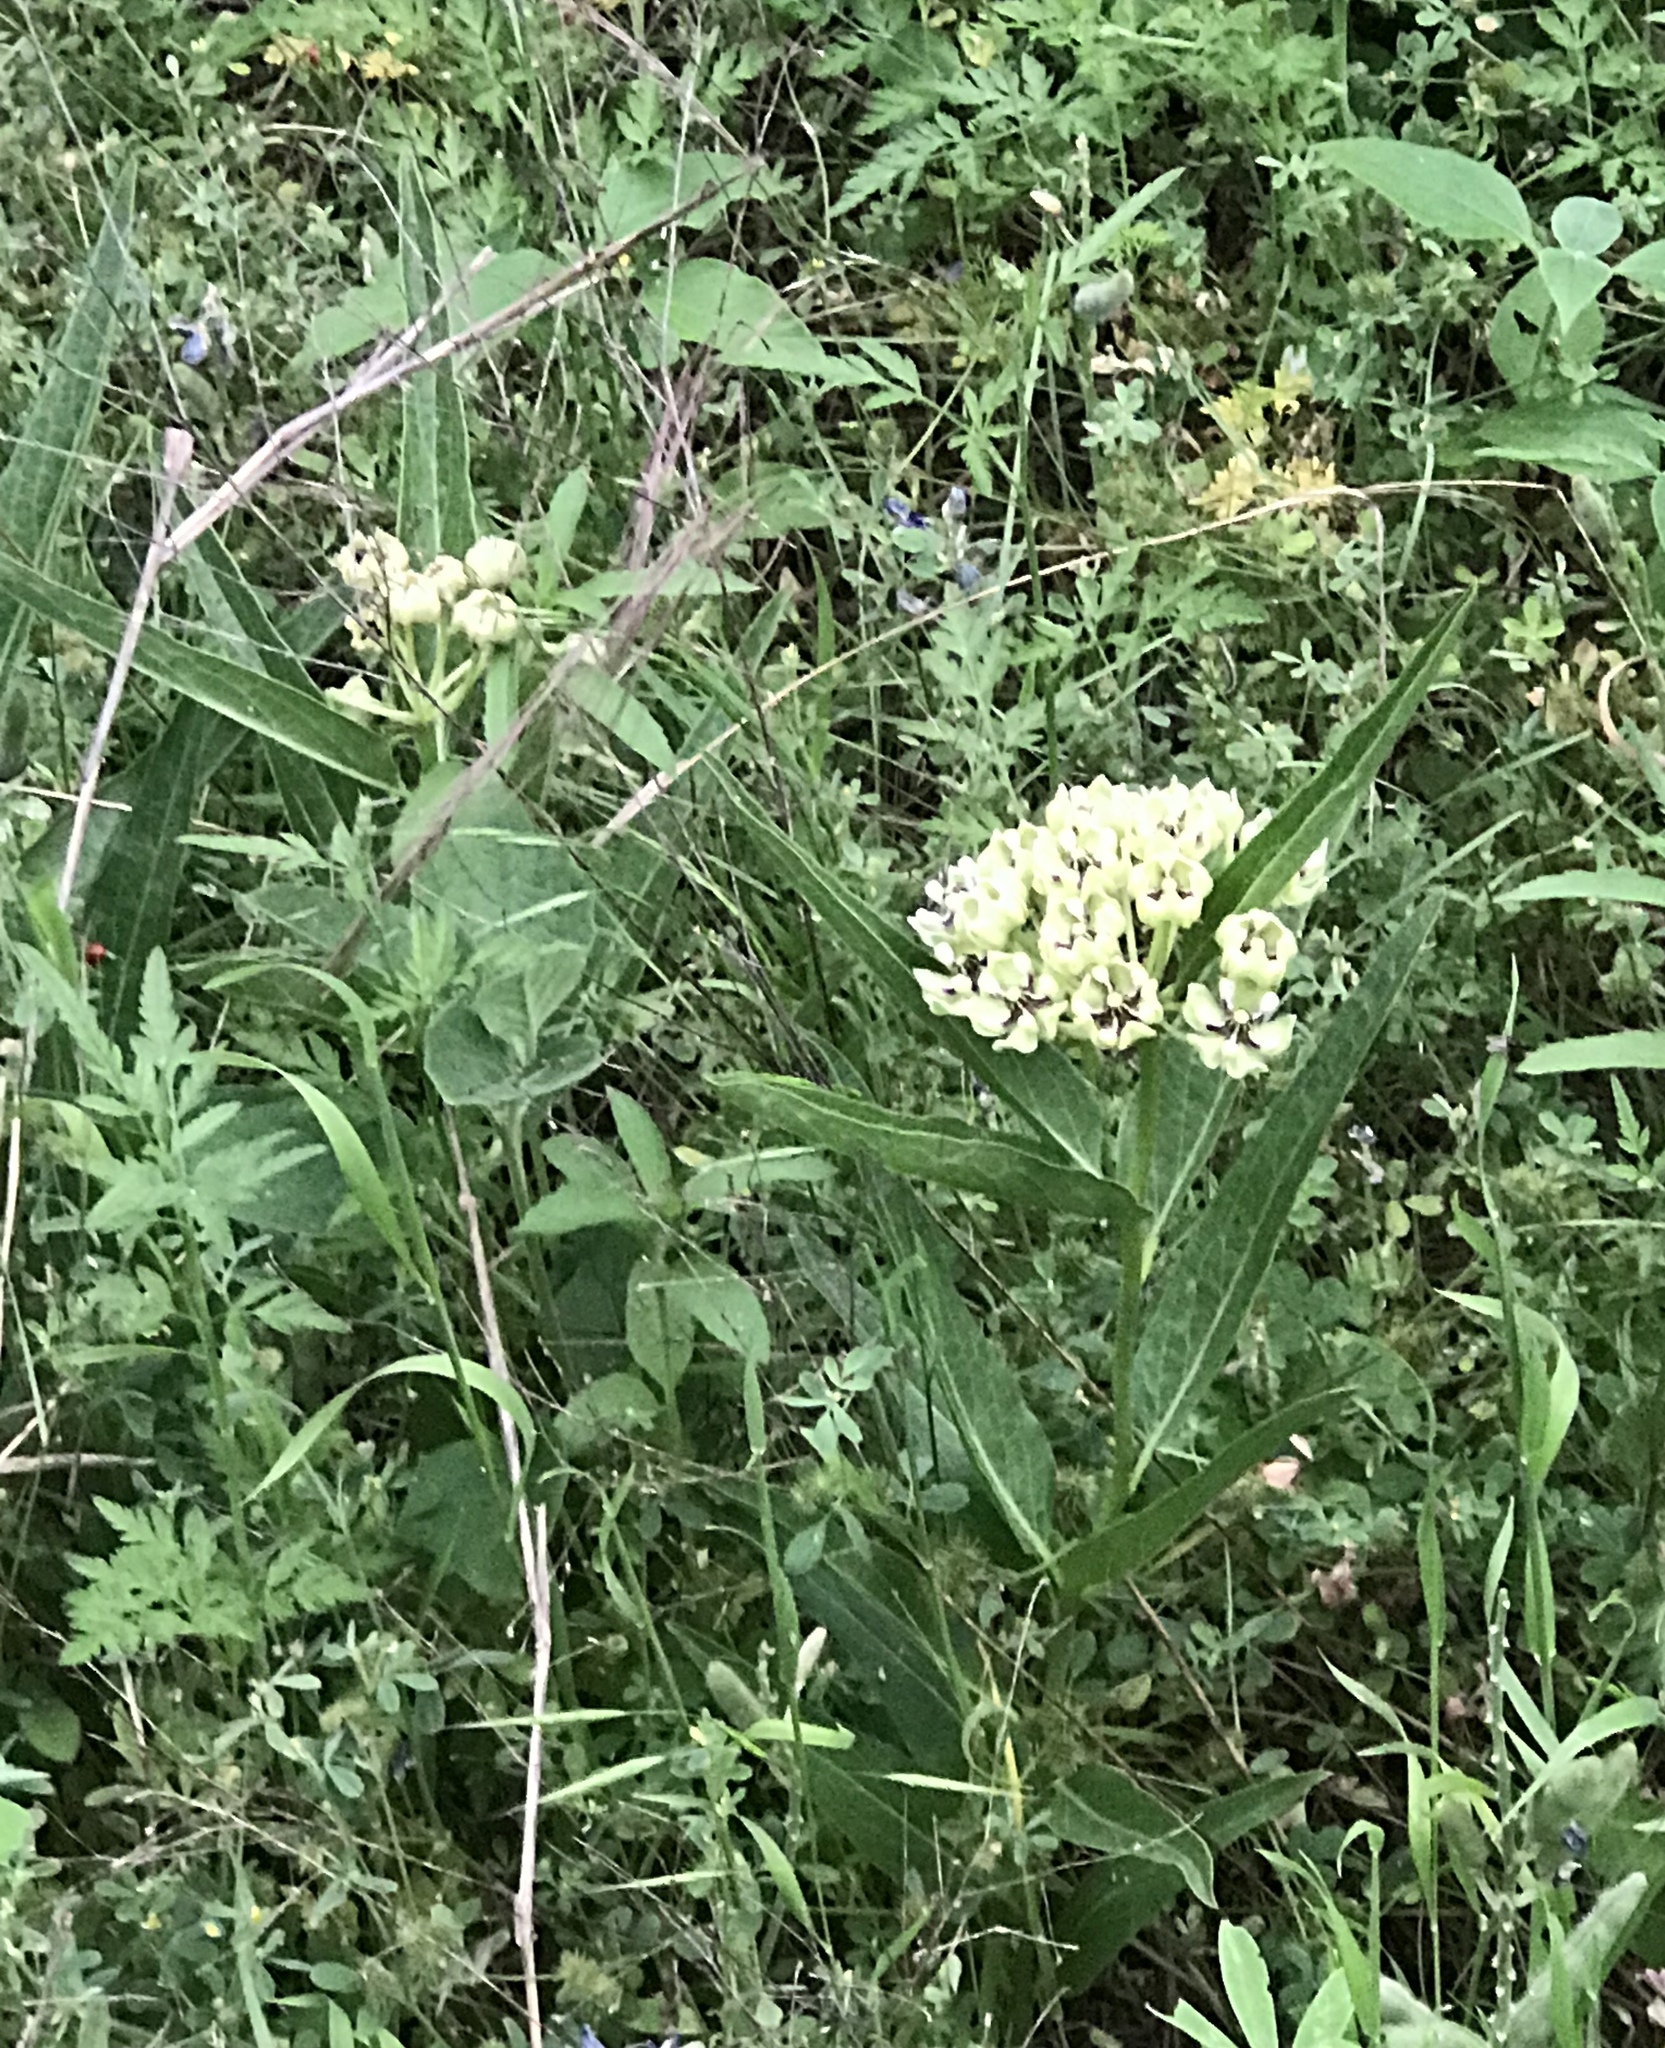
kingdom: Plantae
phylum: Tracheophyta
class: Magnoliopsida
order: Gentianales
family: Apocynaceae
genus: Asclepias
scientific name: Asclepias asperula
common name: Antelope horns
